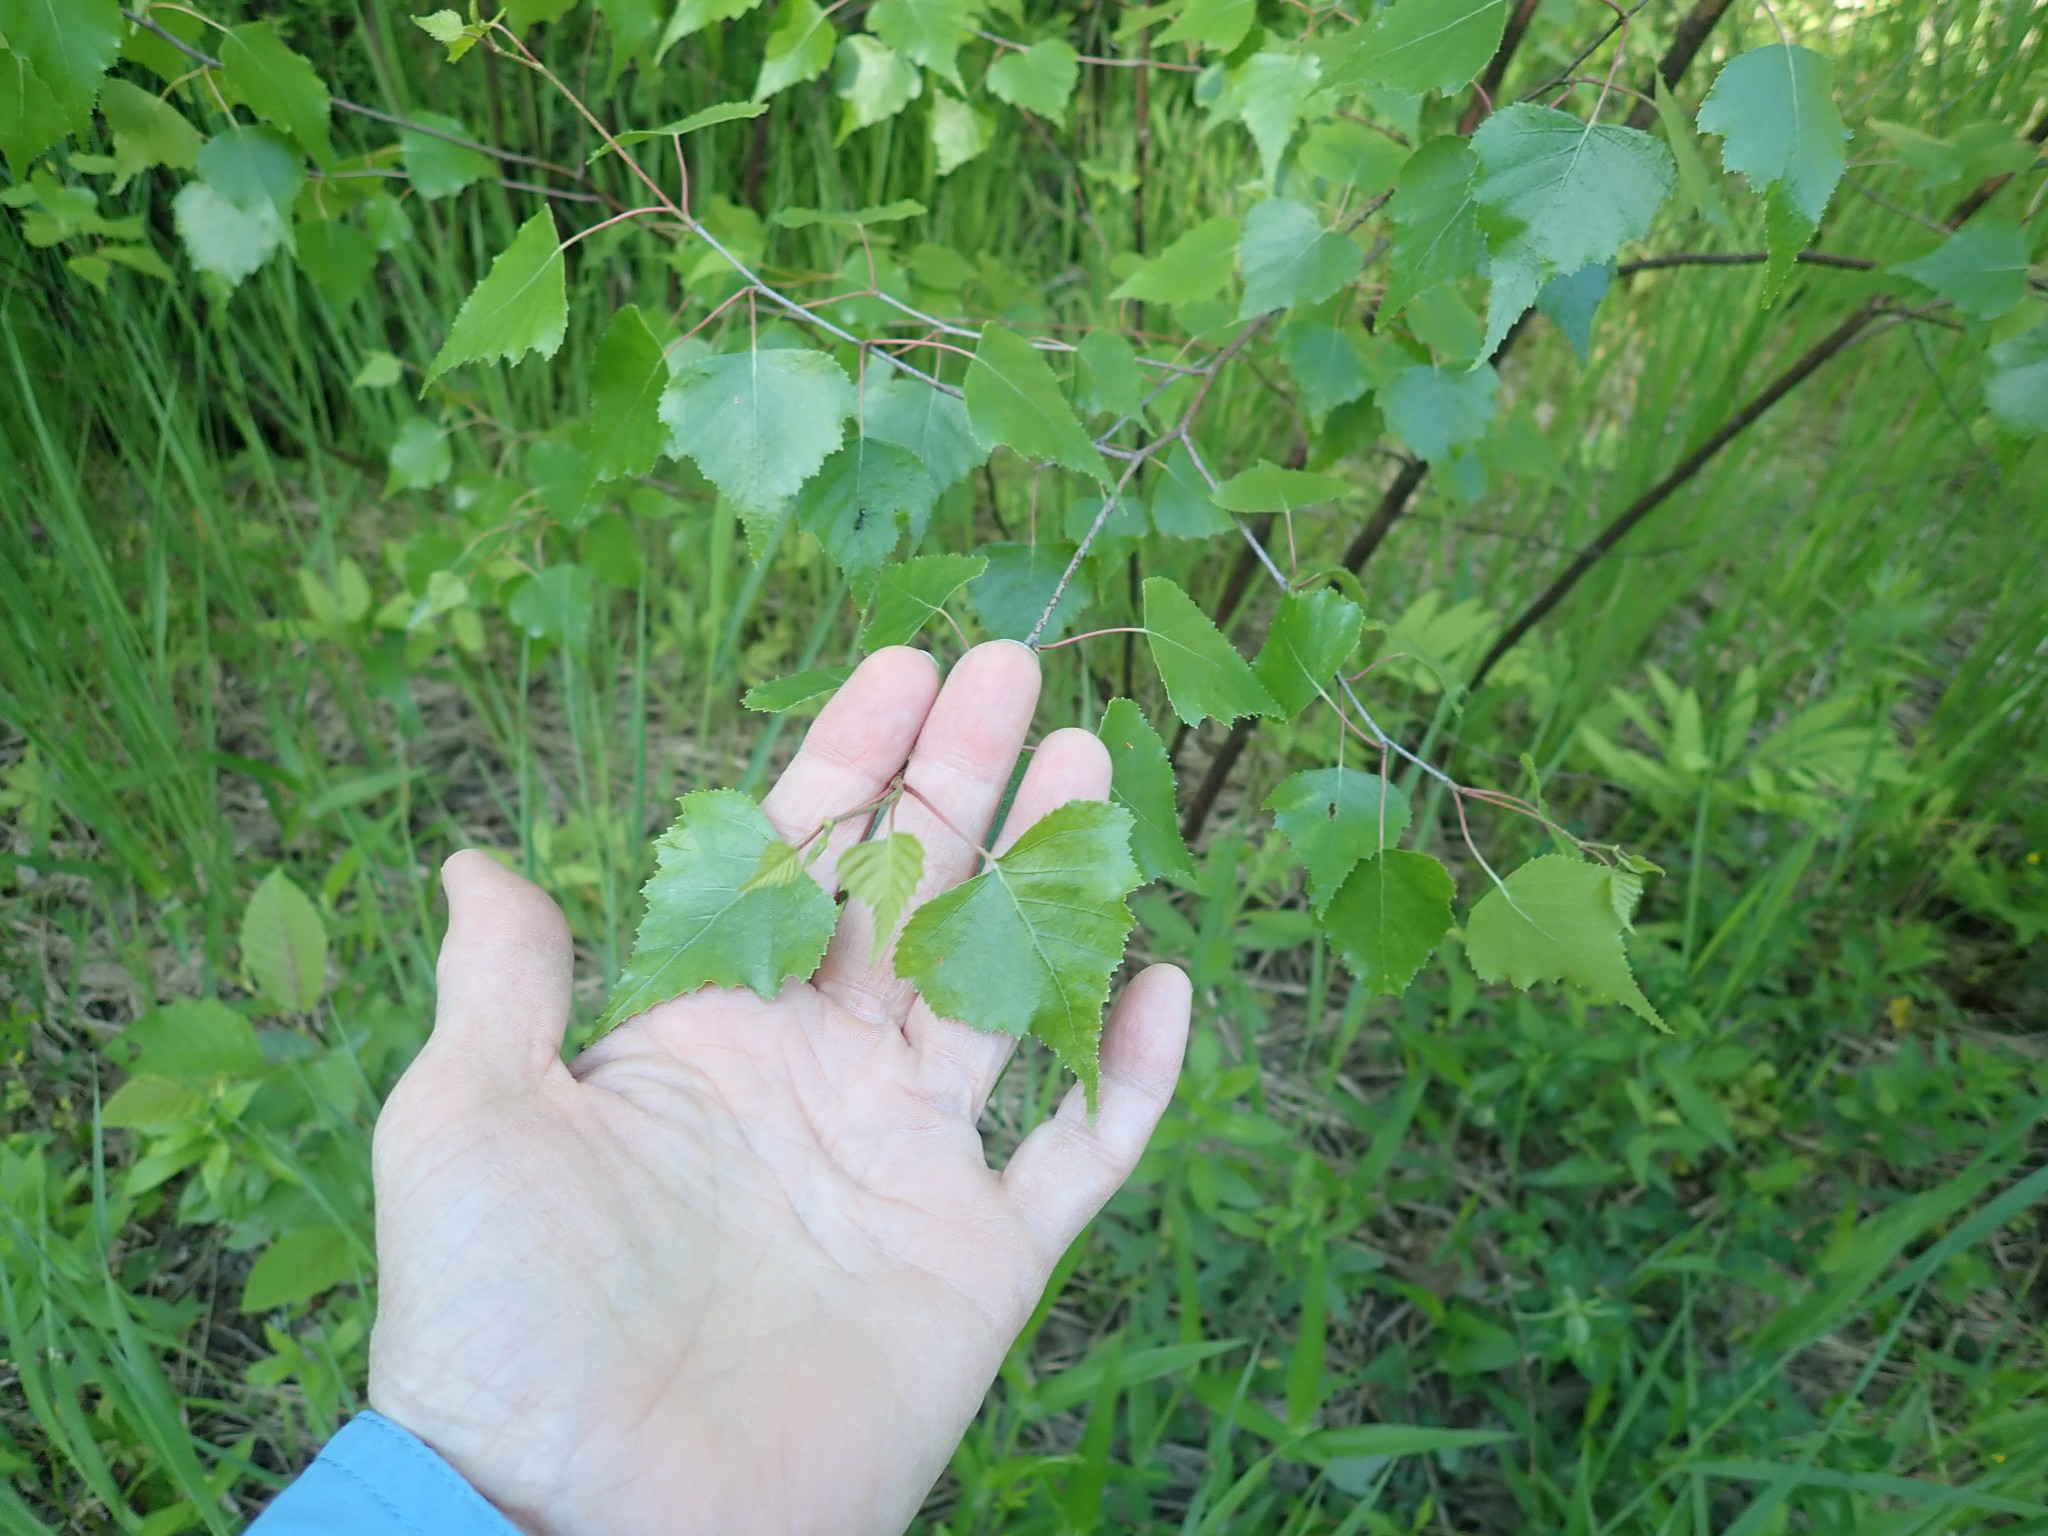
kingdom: Plantae
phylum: Tracheophyta
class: Magnoliopsida
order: Fagales
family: Betulaceae
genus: Betula
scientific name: Betula populifolia
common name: Fire birch
